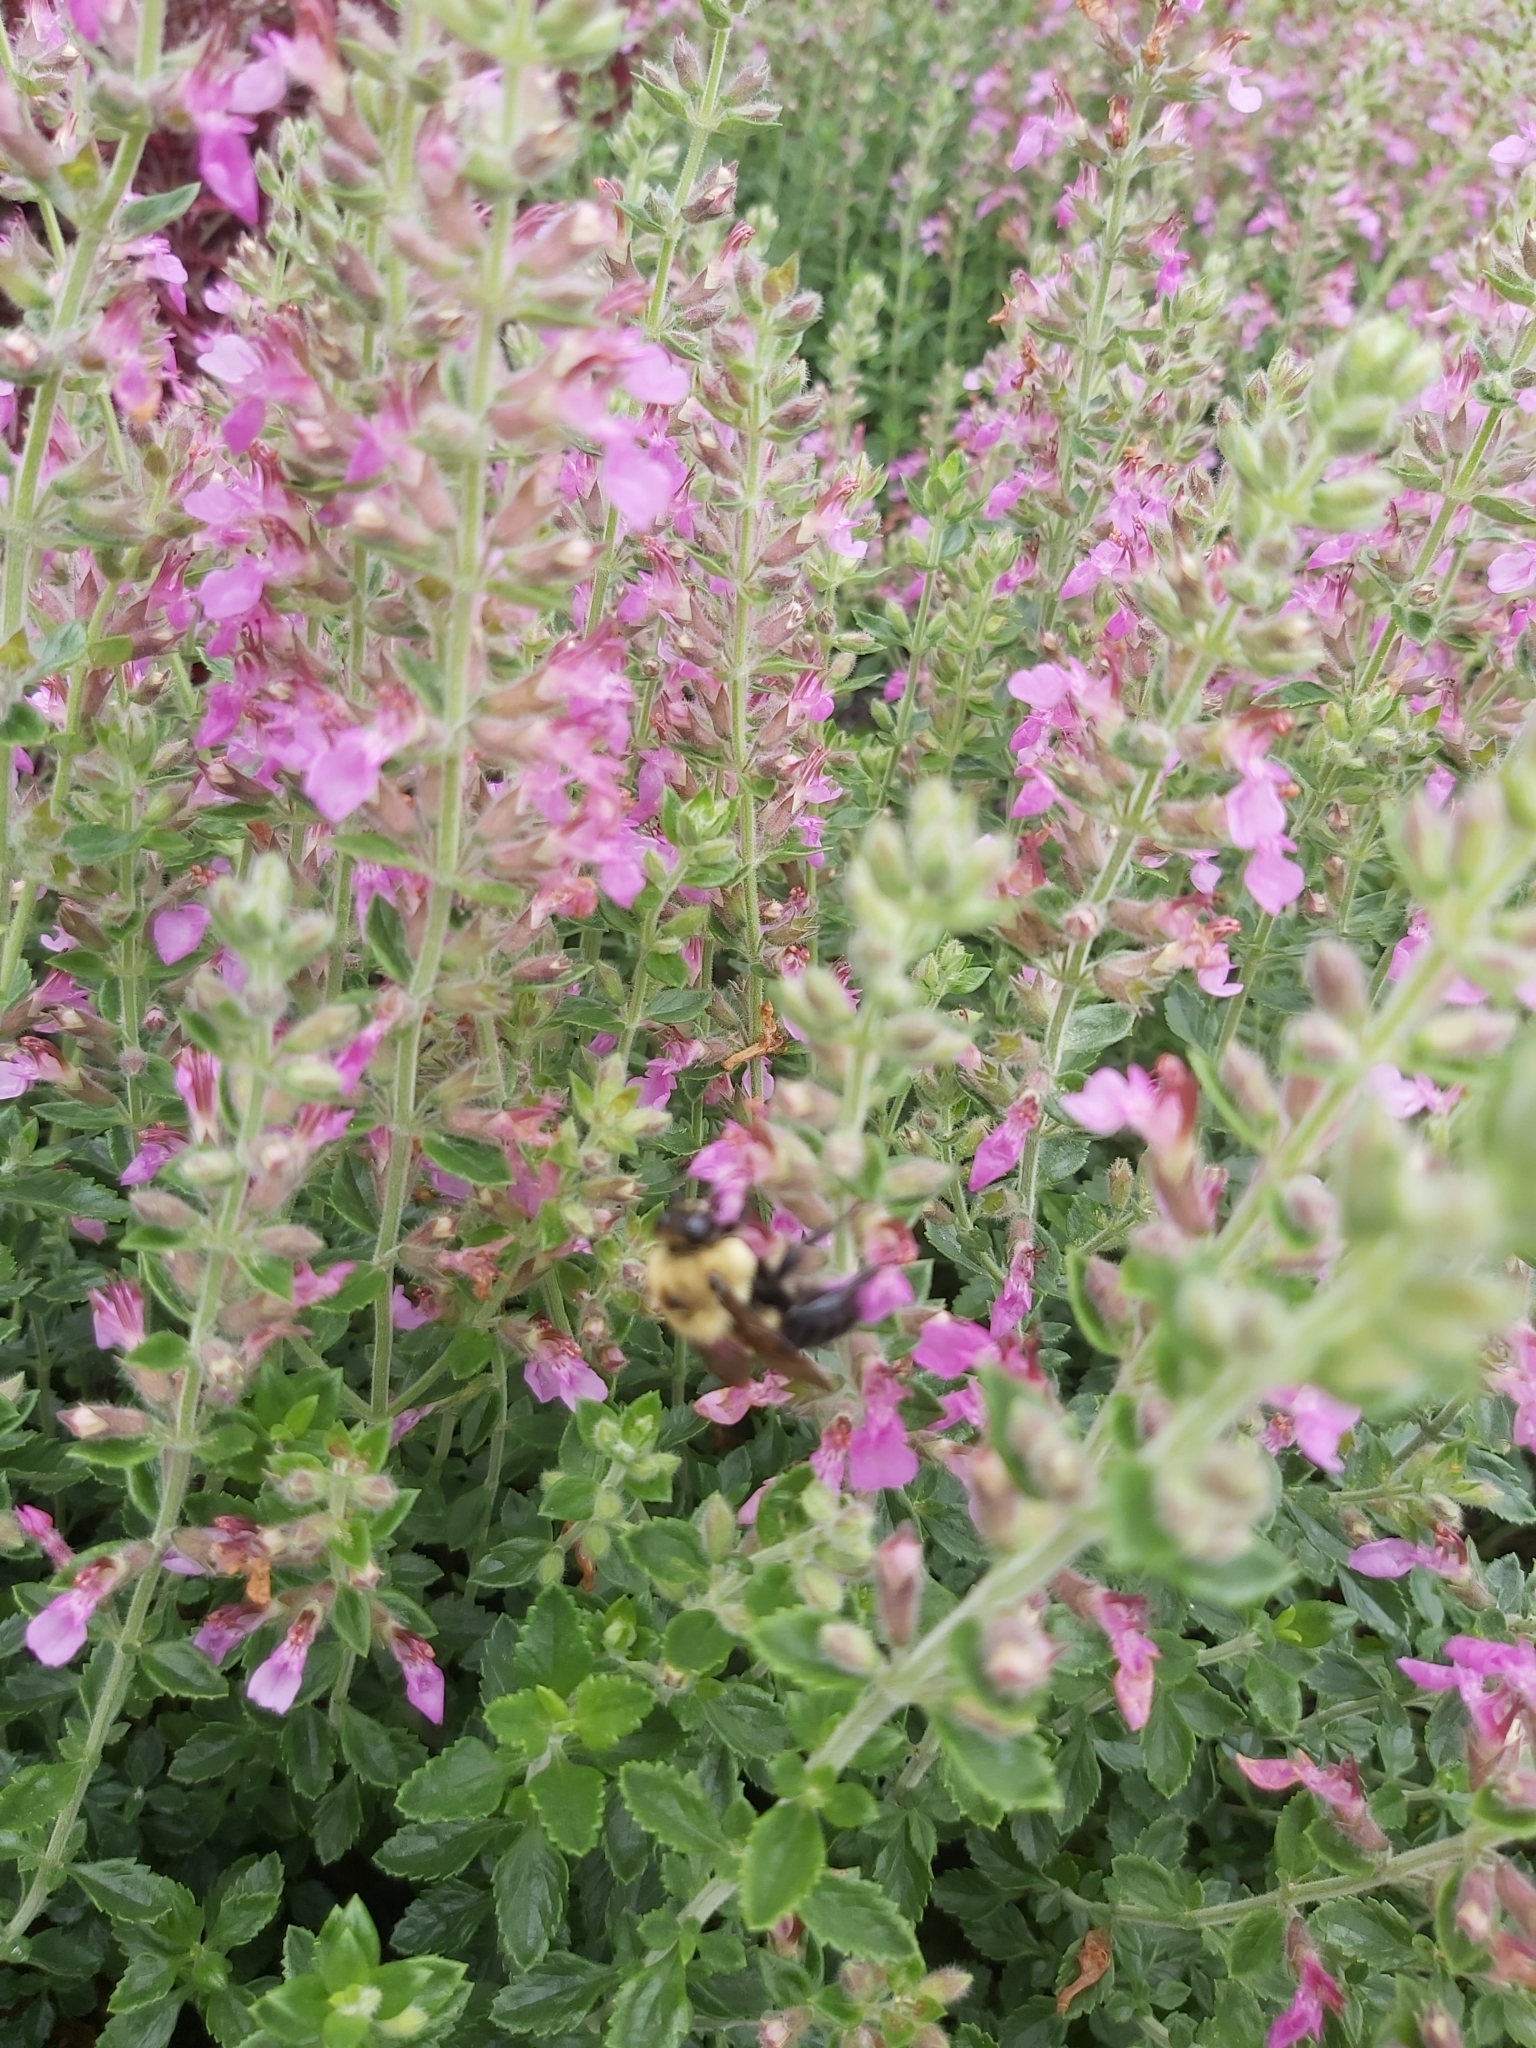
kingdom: Animalia
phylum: Arthropoda
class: Insecta
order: Hymenoptera
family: Apidae
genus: Bombus
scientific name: Bombus griseocollis
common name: Brown-belted bumble bee
